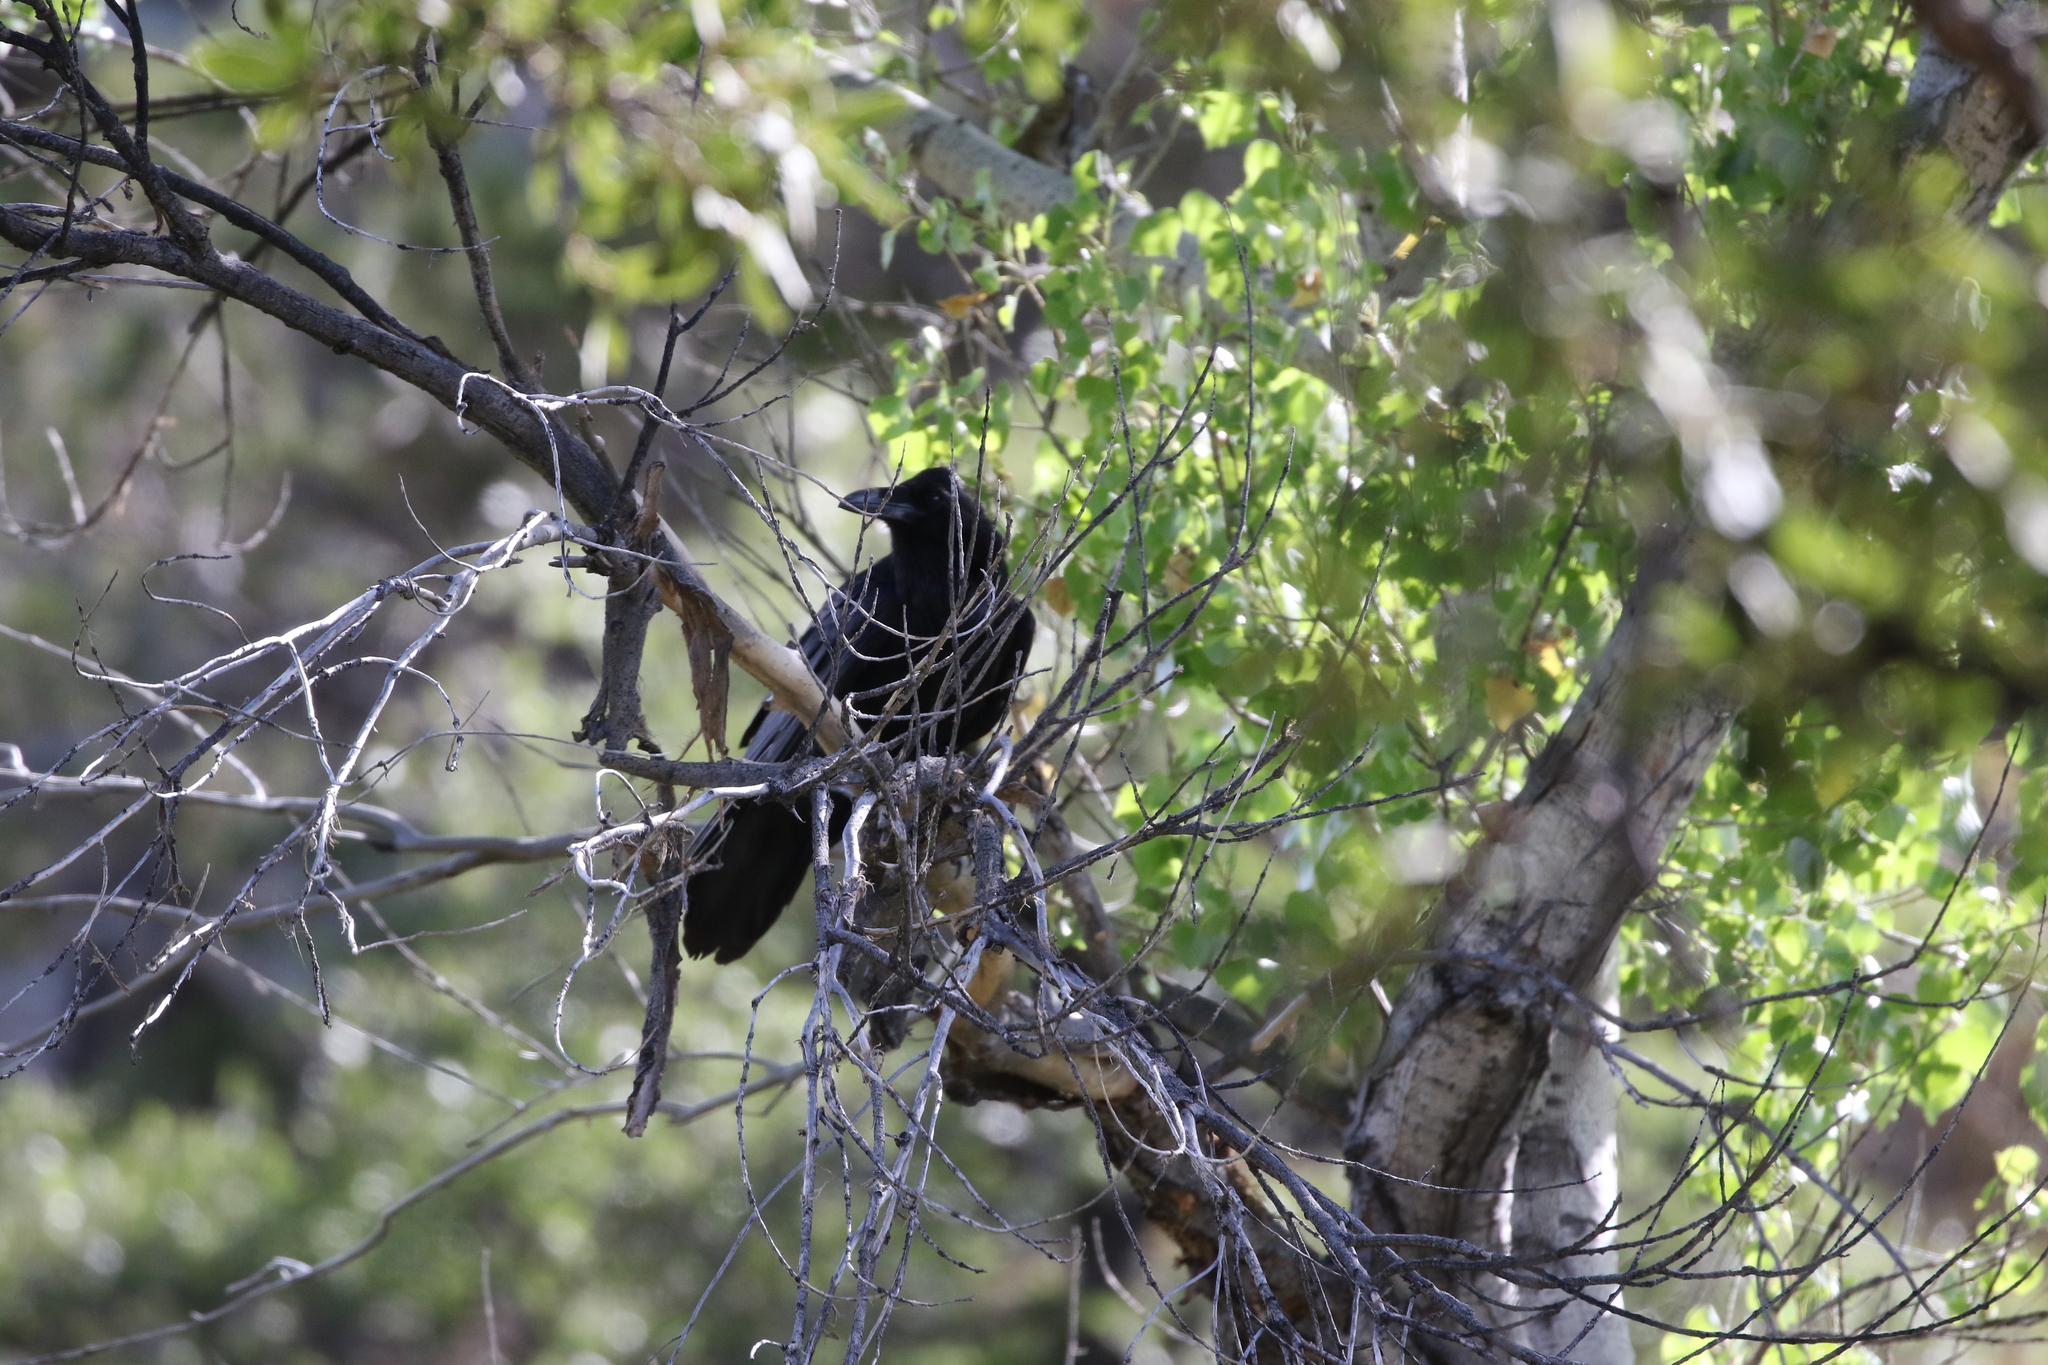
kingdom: Animalia
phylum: Chordata
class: Aves
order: Passeriformes
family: Corvidae
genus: Corvus
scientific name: Corvus corax
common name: Common raven
